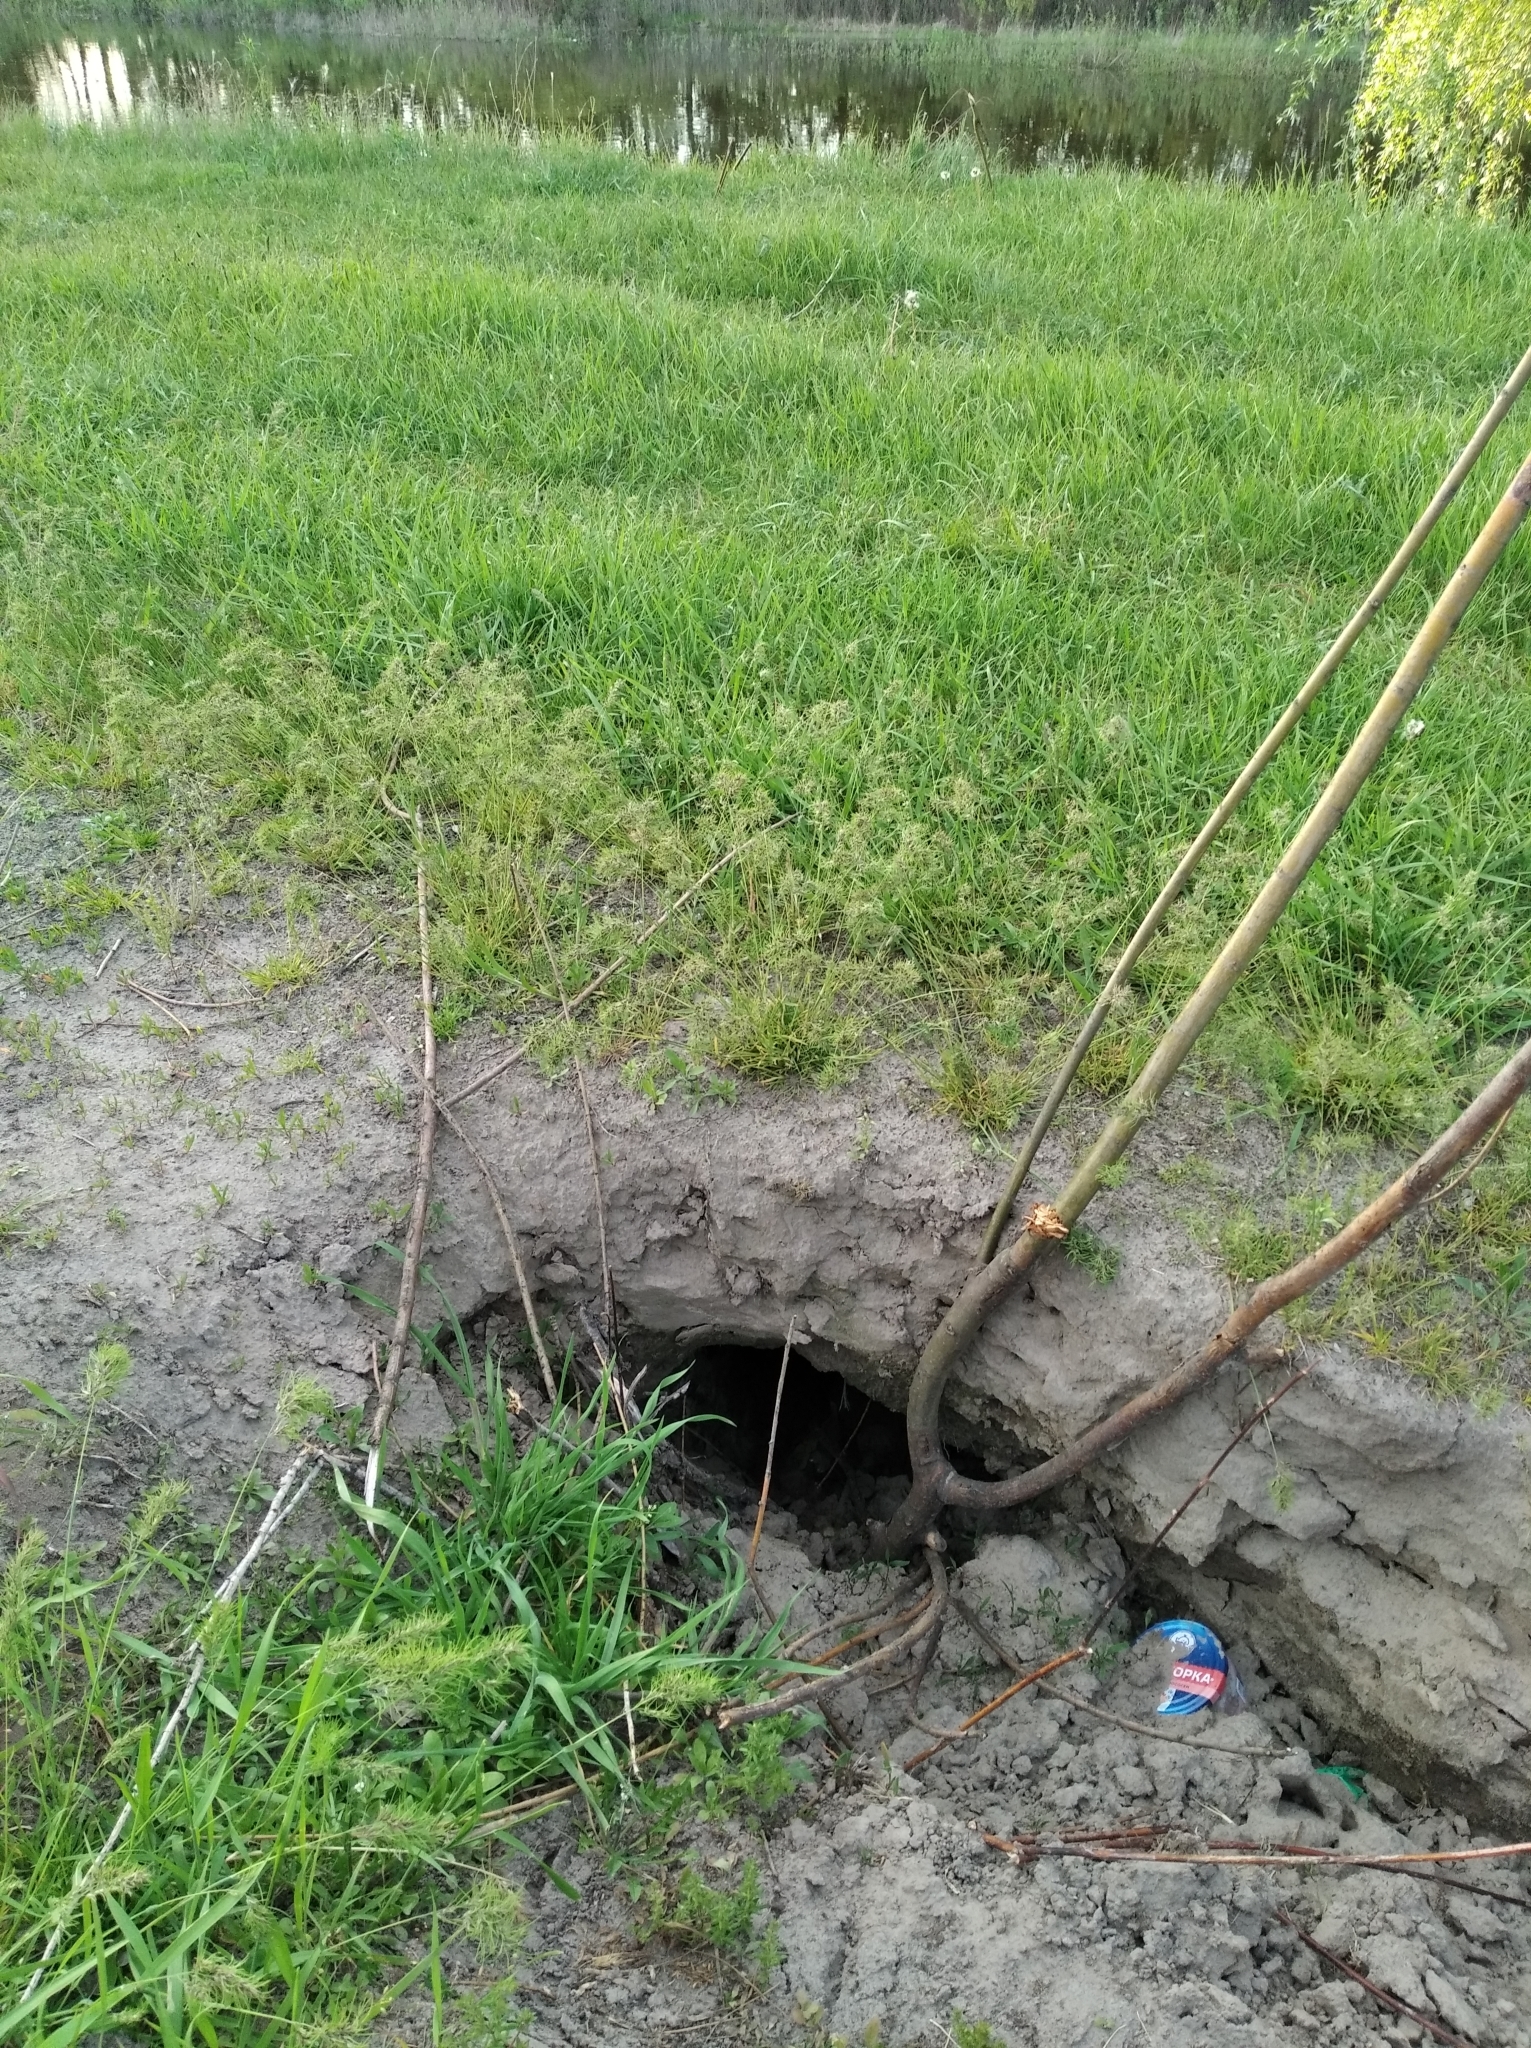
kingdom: Animalia
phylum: Chordata
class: Mammalia
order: Rodentia
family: Castoridae
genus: Castor
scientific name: Castor fiber
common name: Eurasian beaver
